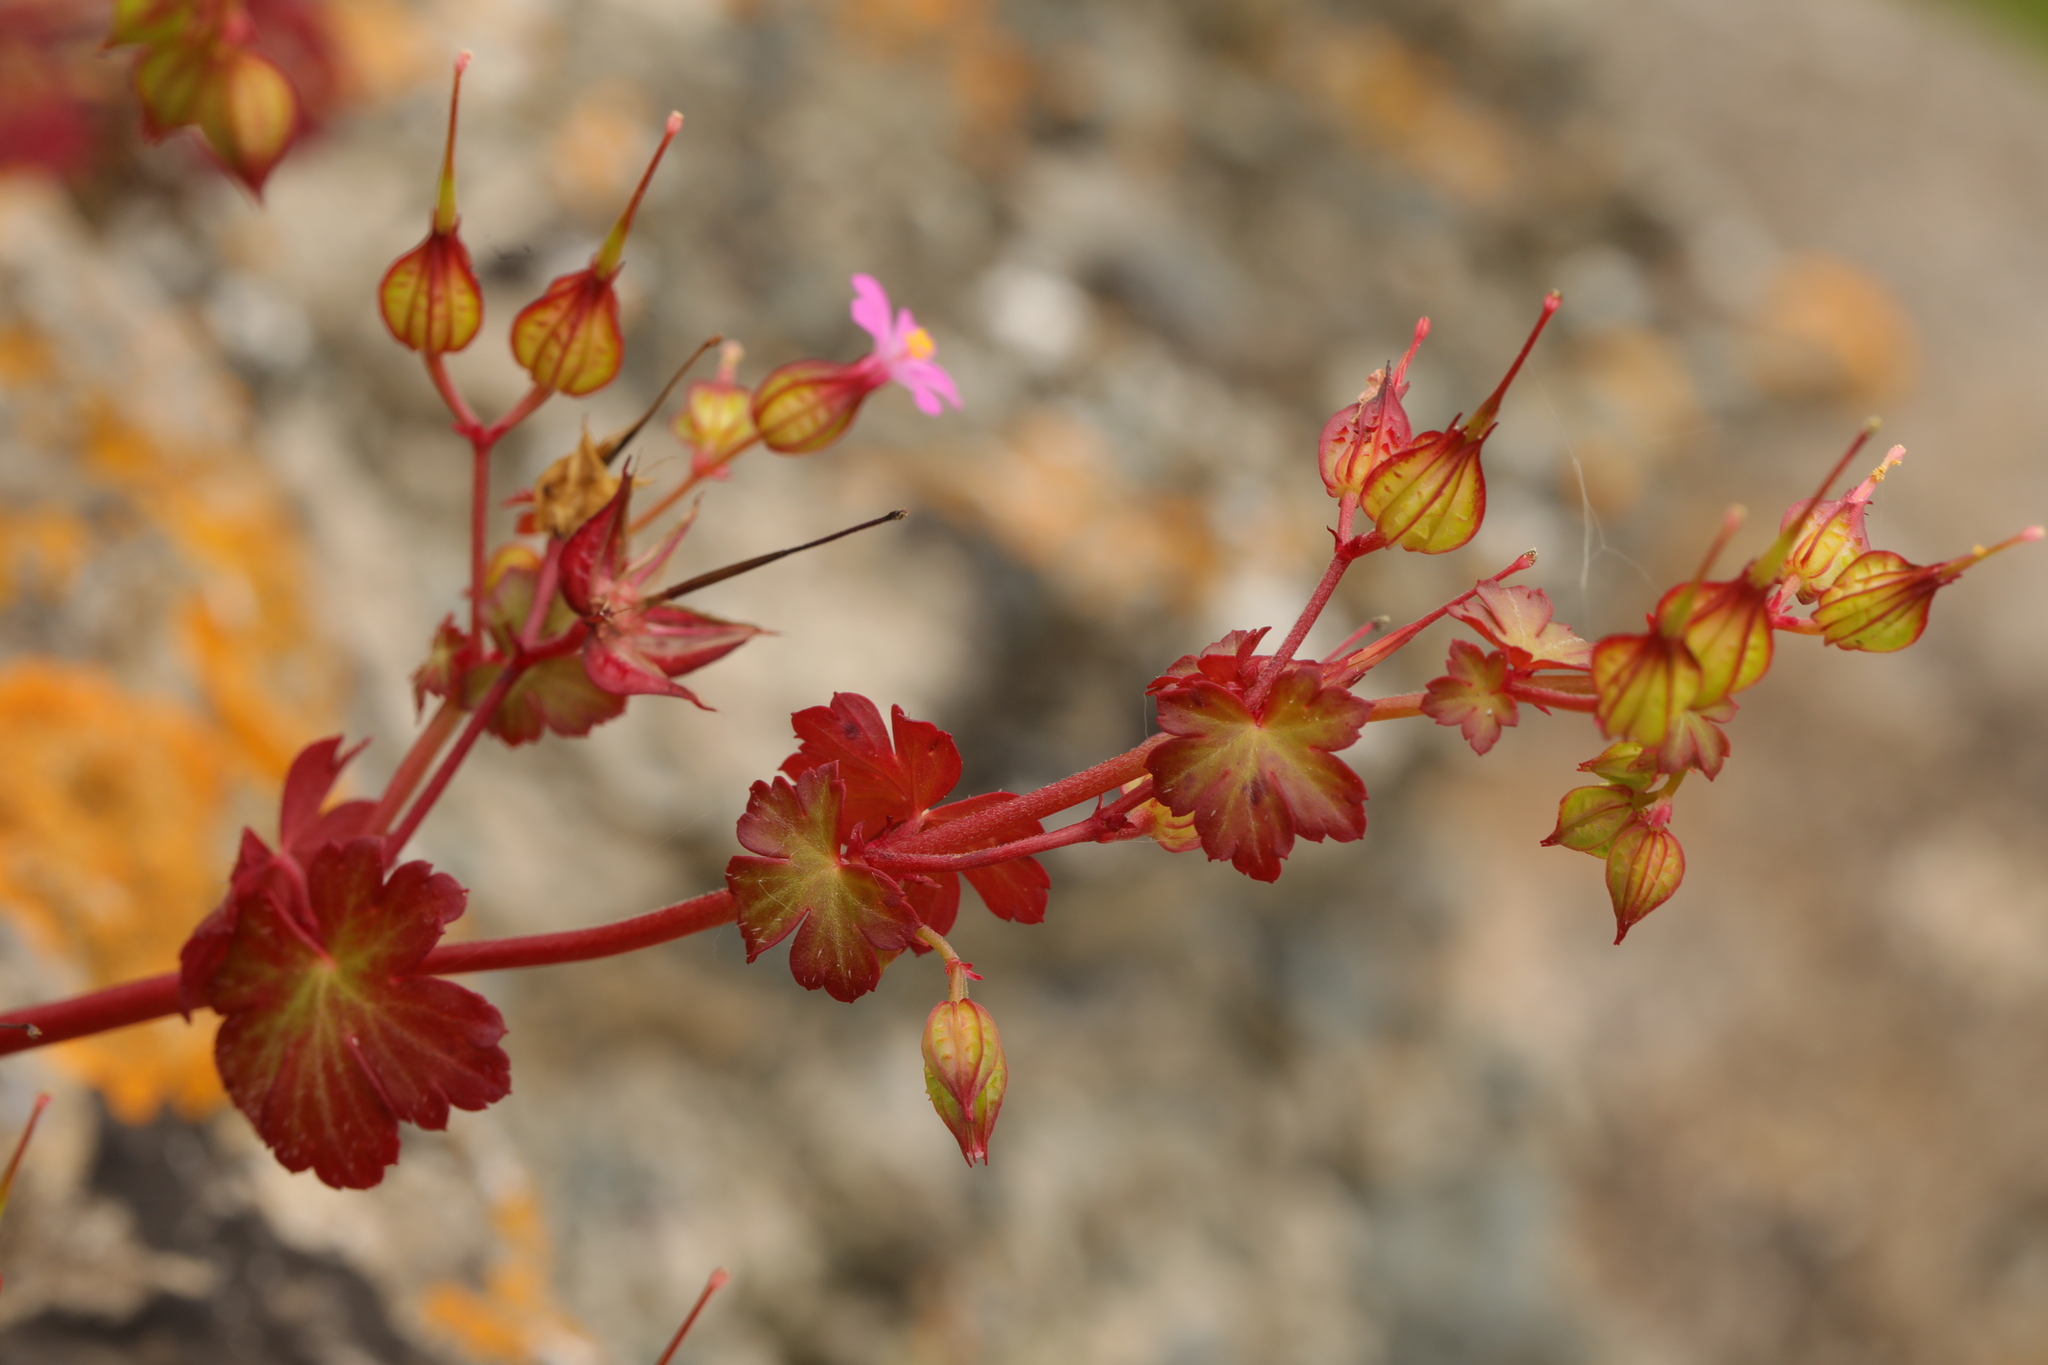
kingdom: Plantae
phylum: Tracheophyta
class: Magnoliopsida
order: Geraniales
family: Geraniaceae
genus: Geranium
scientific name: Geranium lucidum
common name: Shining crane's-bill
